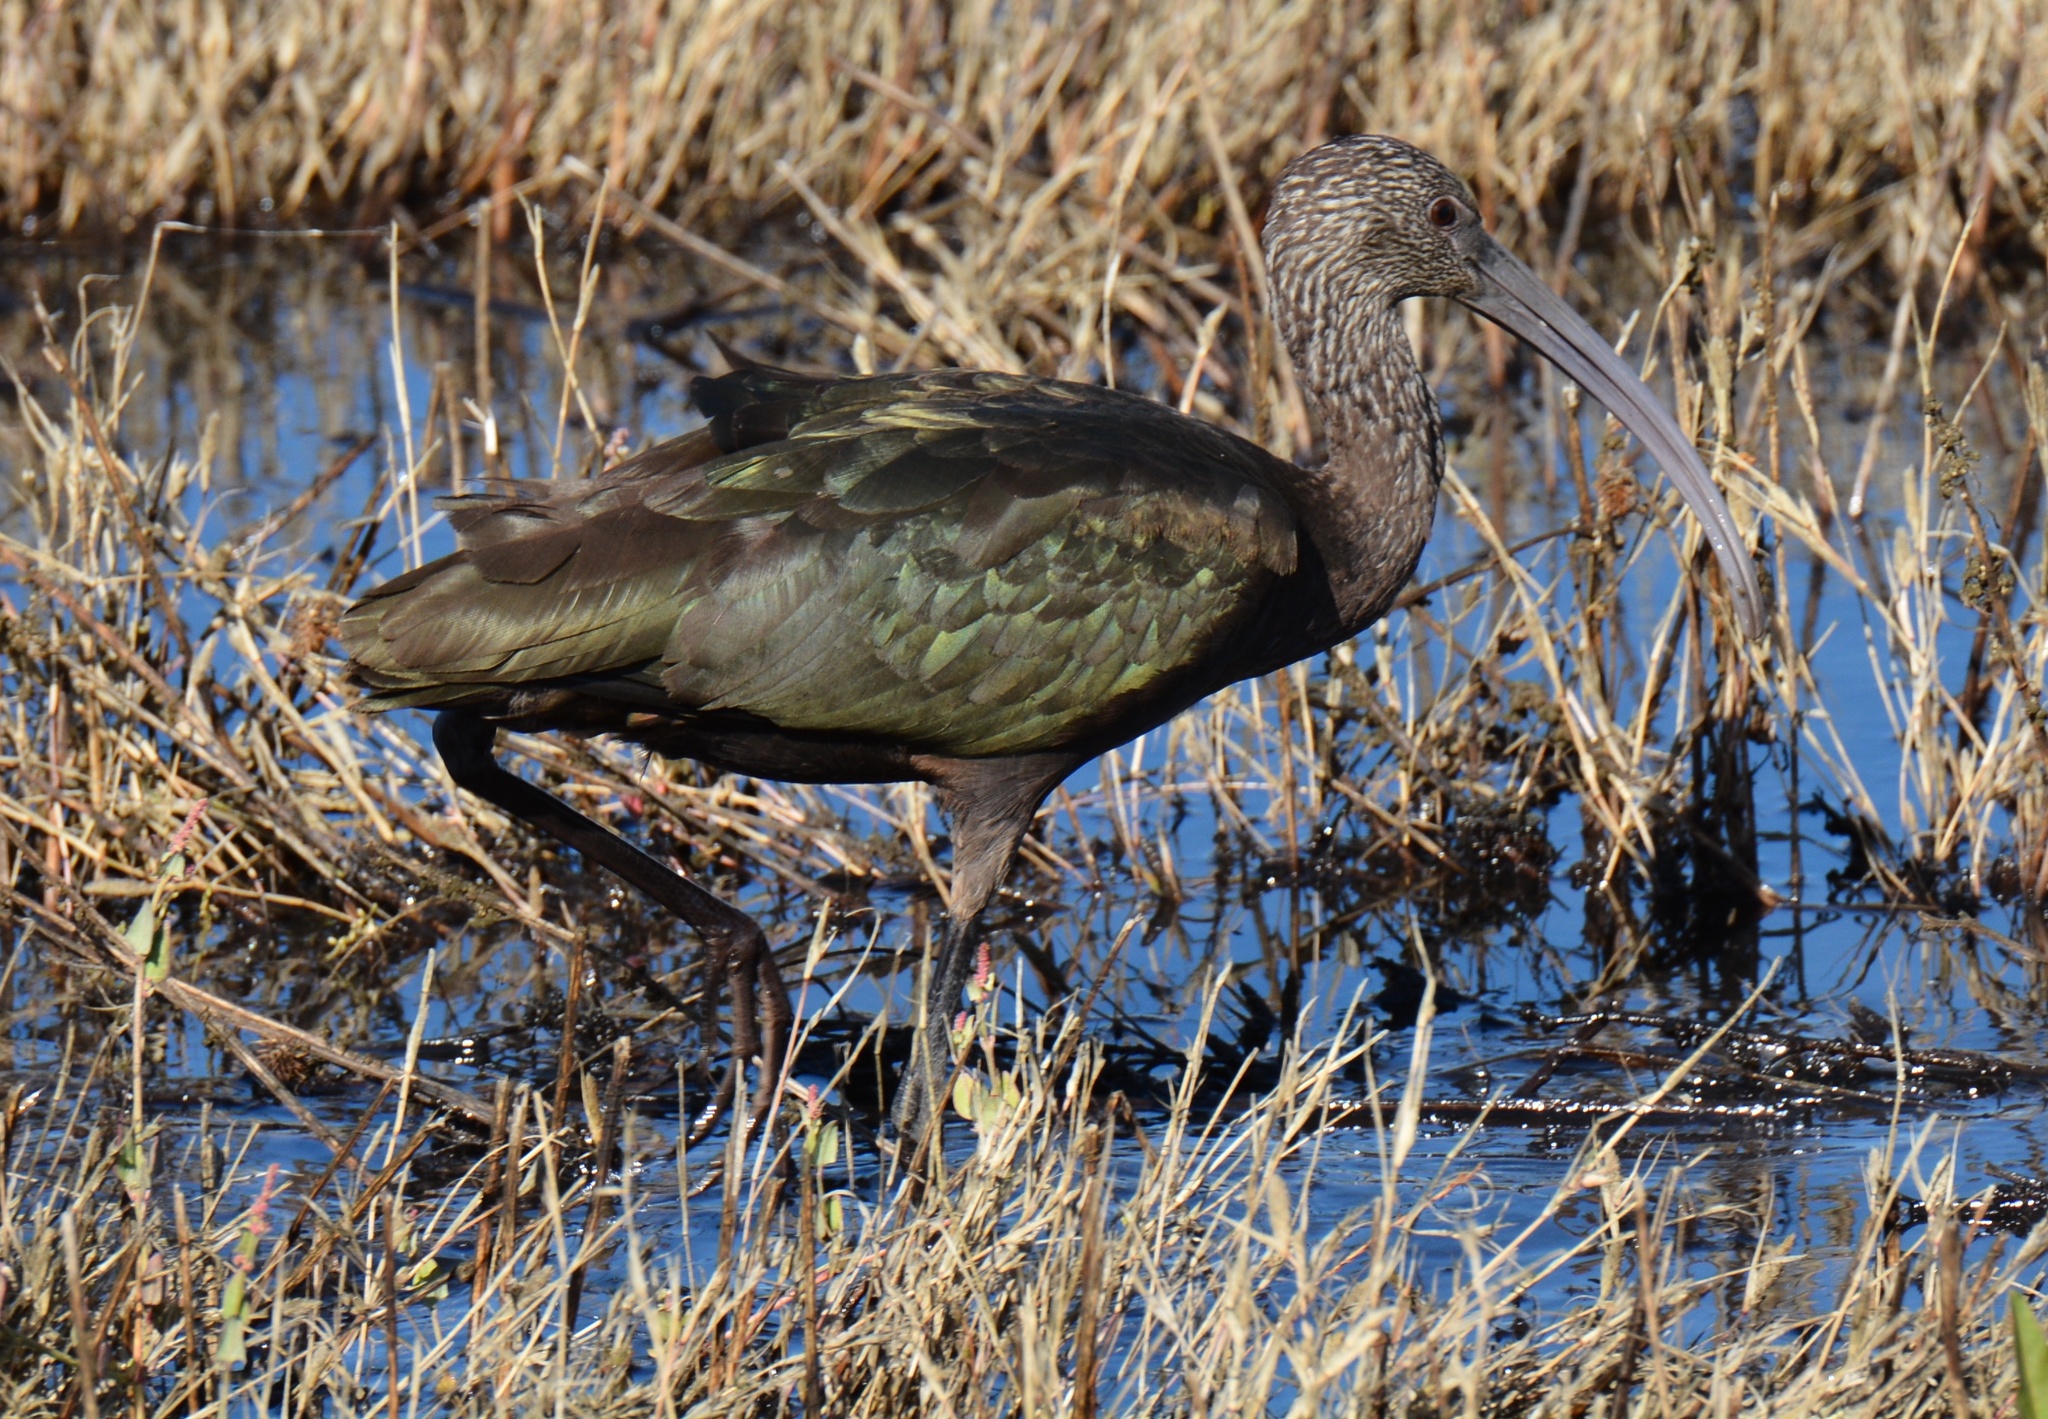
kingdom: Animalia
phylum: Chordata
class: Aves
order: Pelecaniformes
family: Threskiornithidae
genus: Plegadis
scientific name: Plegadis chihi
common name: White-faced ibis
